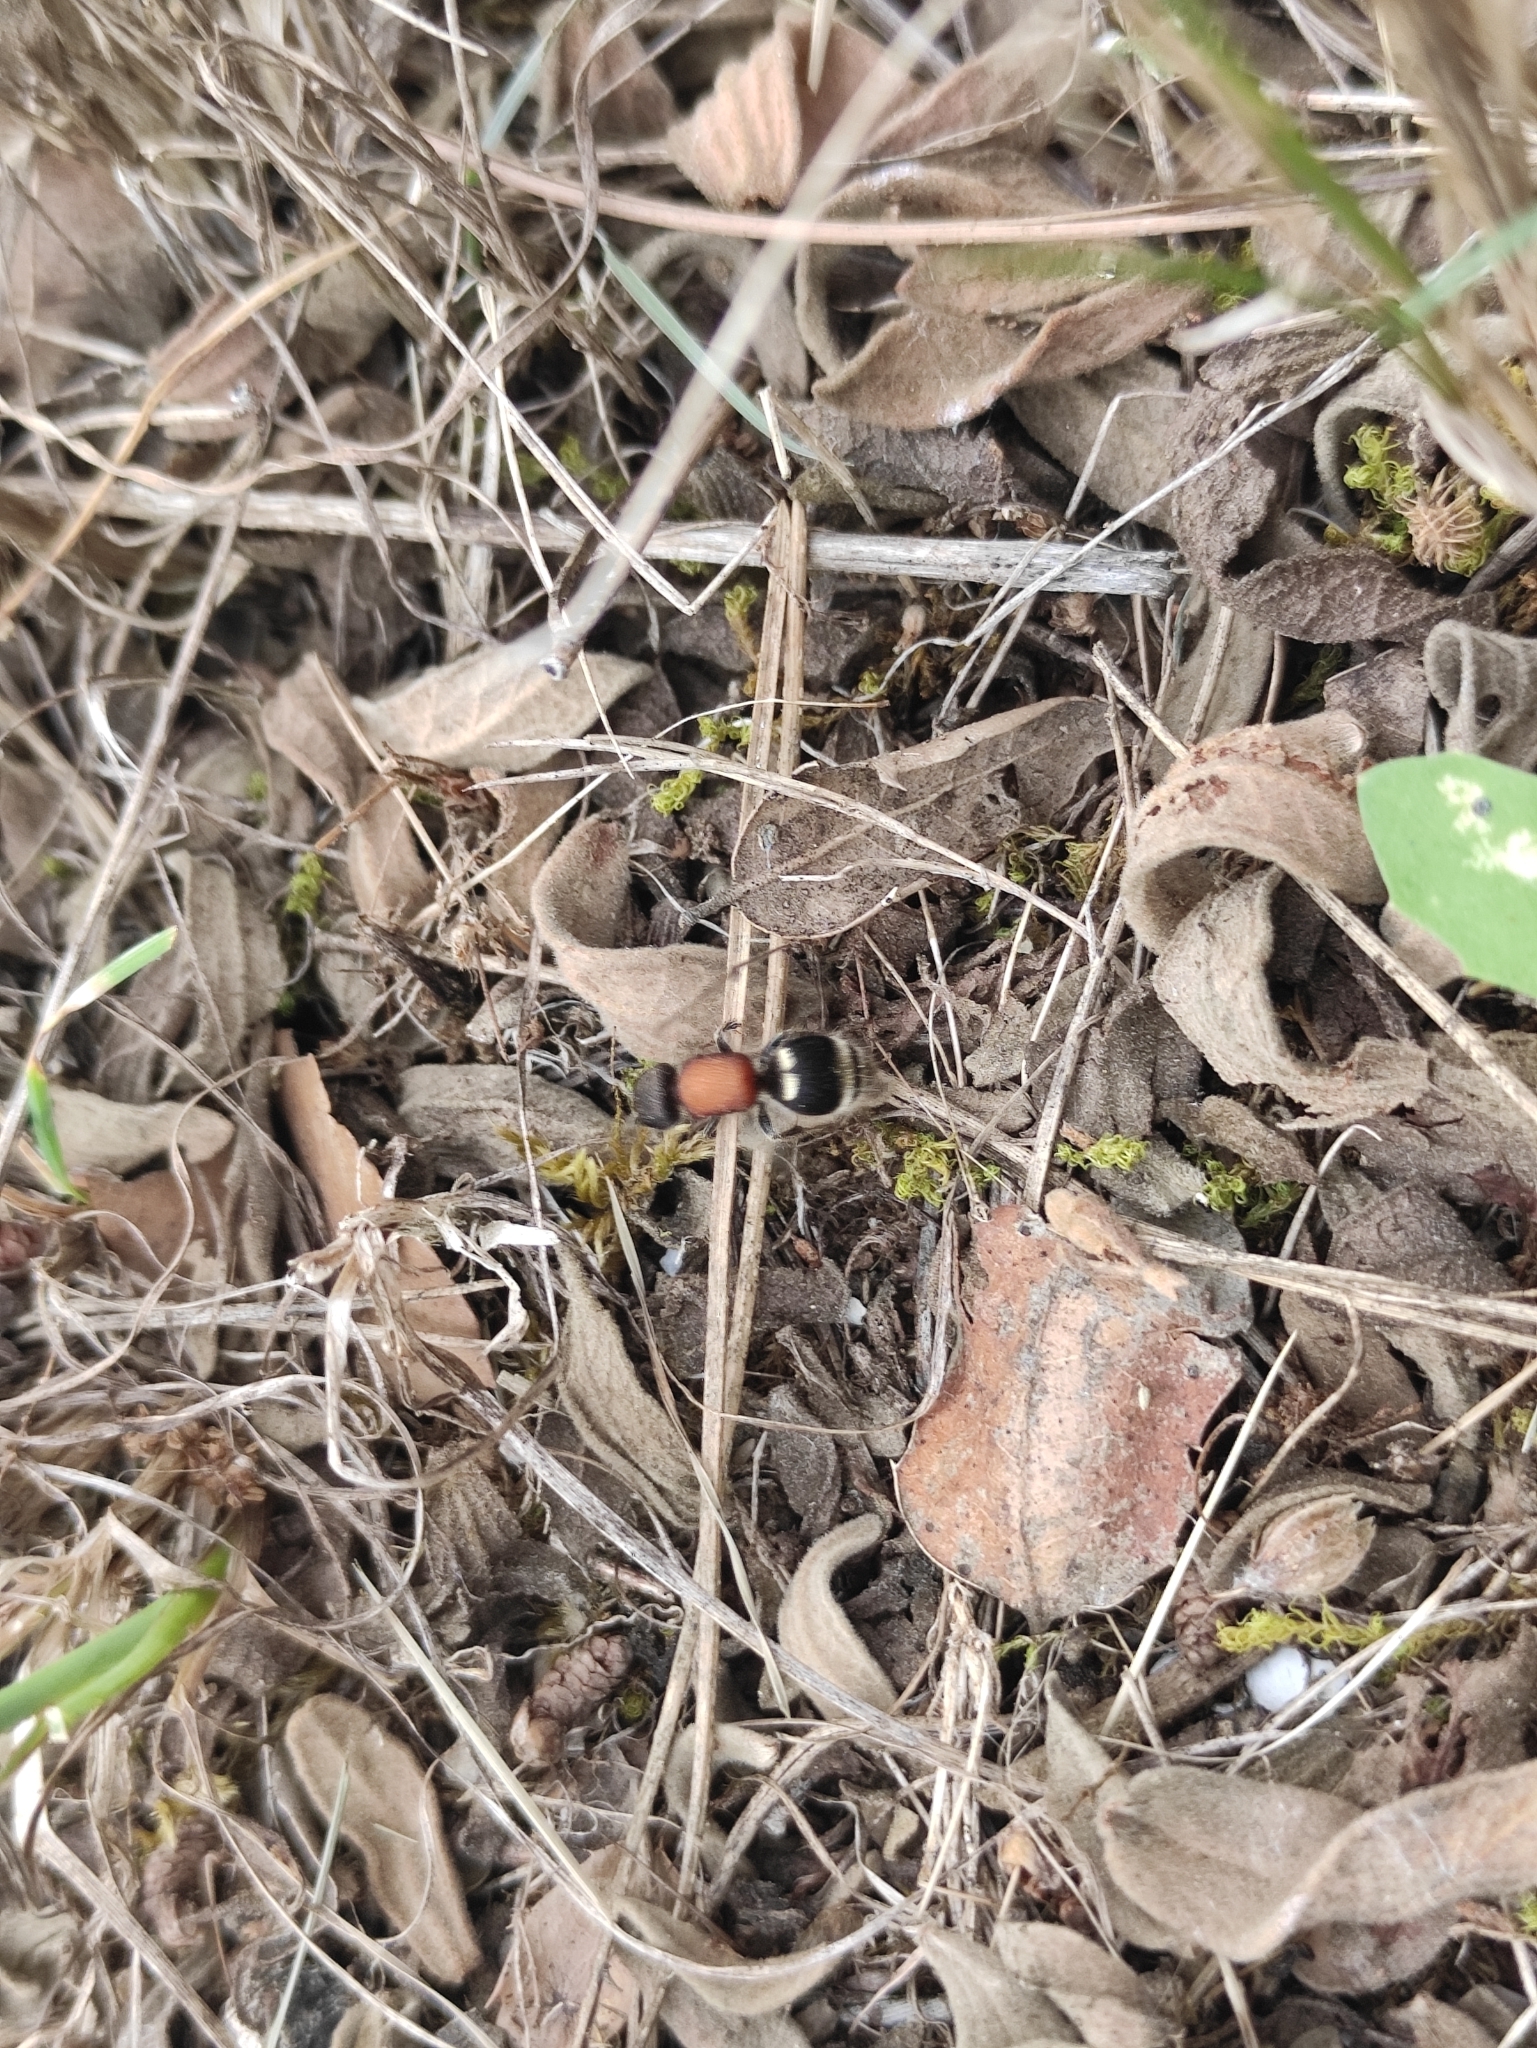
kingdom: Animalia
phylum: Arthropoda
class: Insecta
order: Hymenoptera
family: Mutillidae
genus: Tropidotilla
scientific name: Tropidotilla litoralis
